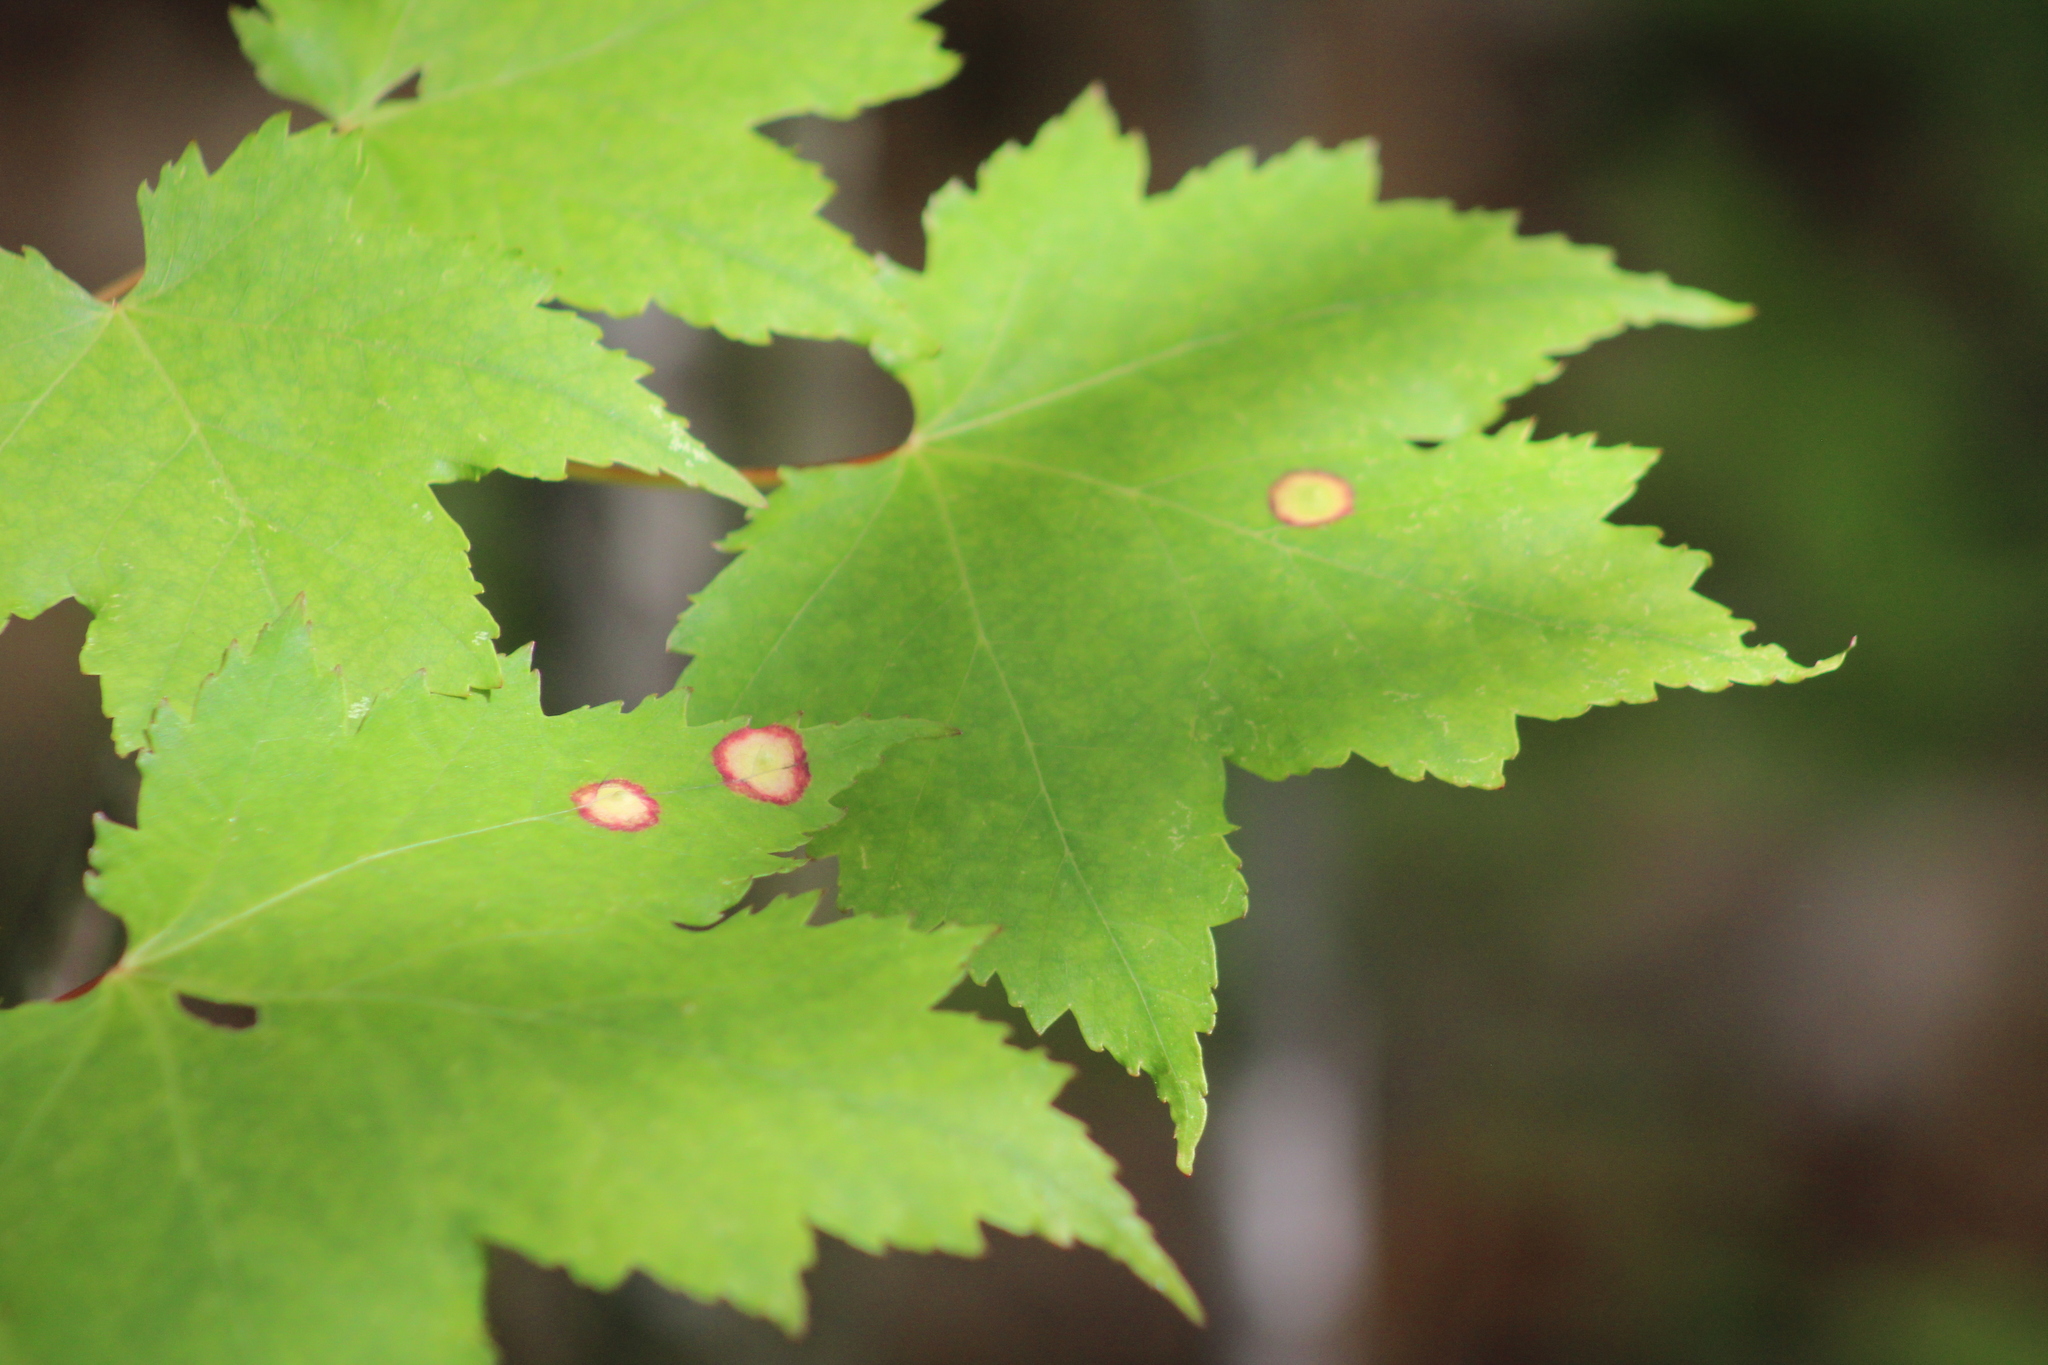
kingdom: Animalia
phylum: Arthropoda
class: Insecta
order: Diptera
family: Cecidomyiidae
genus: Acericecis
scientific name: Acericecis ocellaris
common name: Ocellate gall midge
